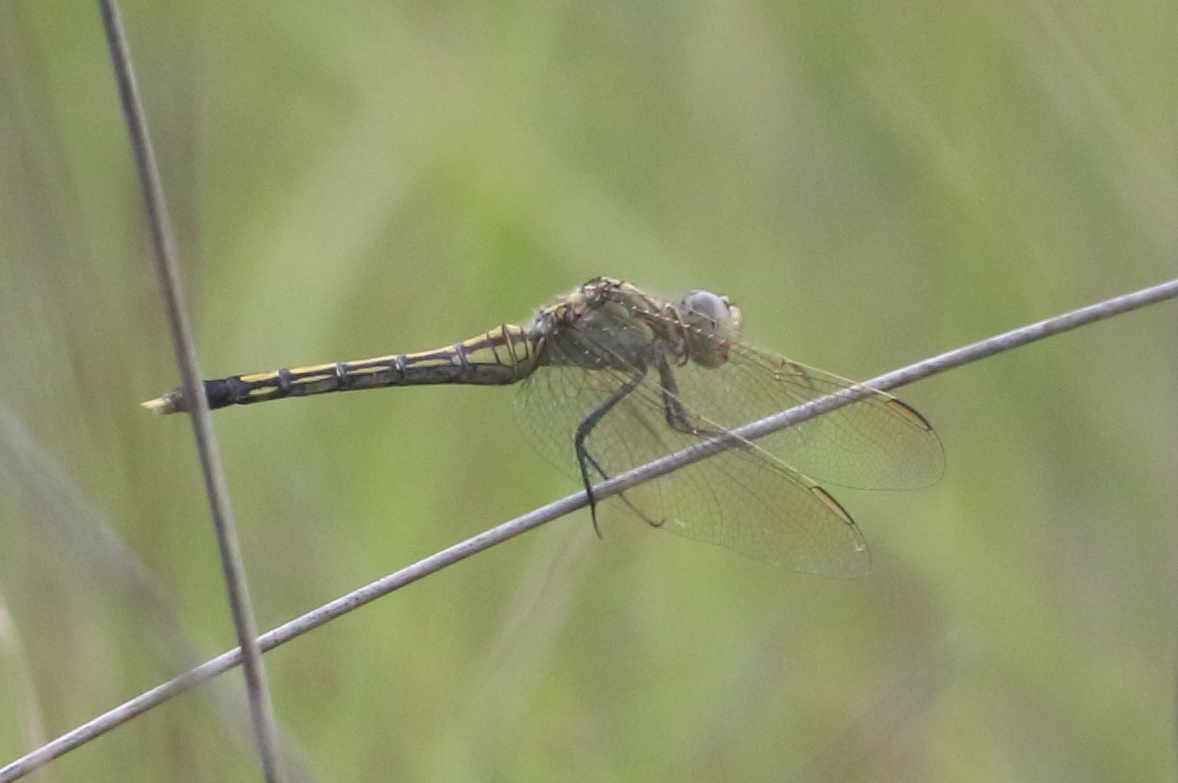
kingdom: Animalia
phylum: Arthropoda
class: Insecta
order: Odonata
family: Libellulidae
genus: Orthetrum
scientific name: Orthetrum caledonicum
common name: Blue skimmer
